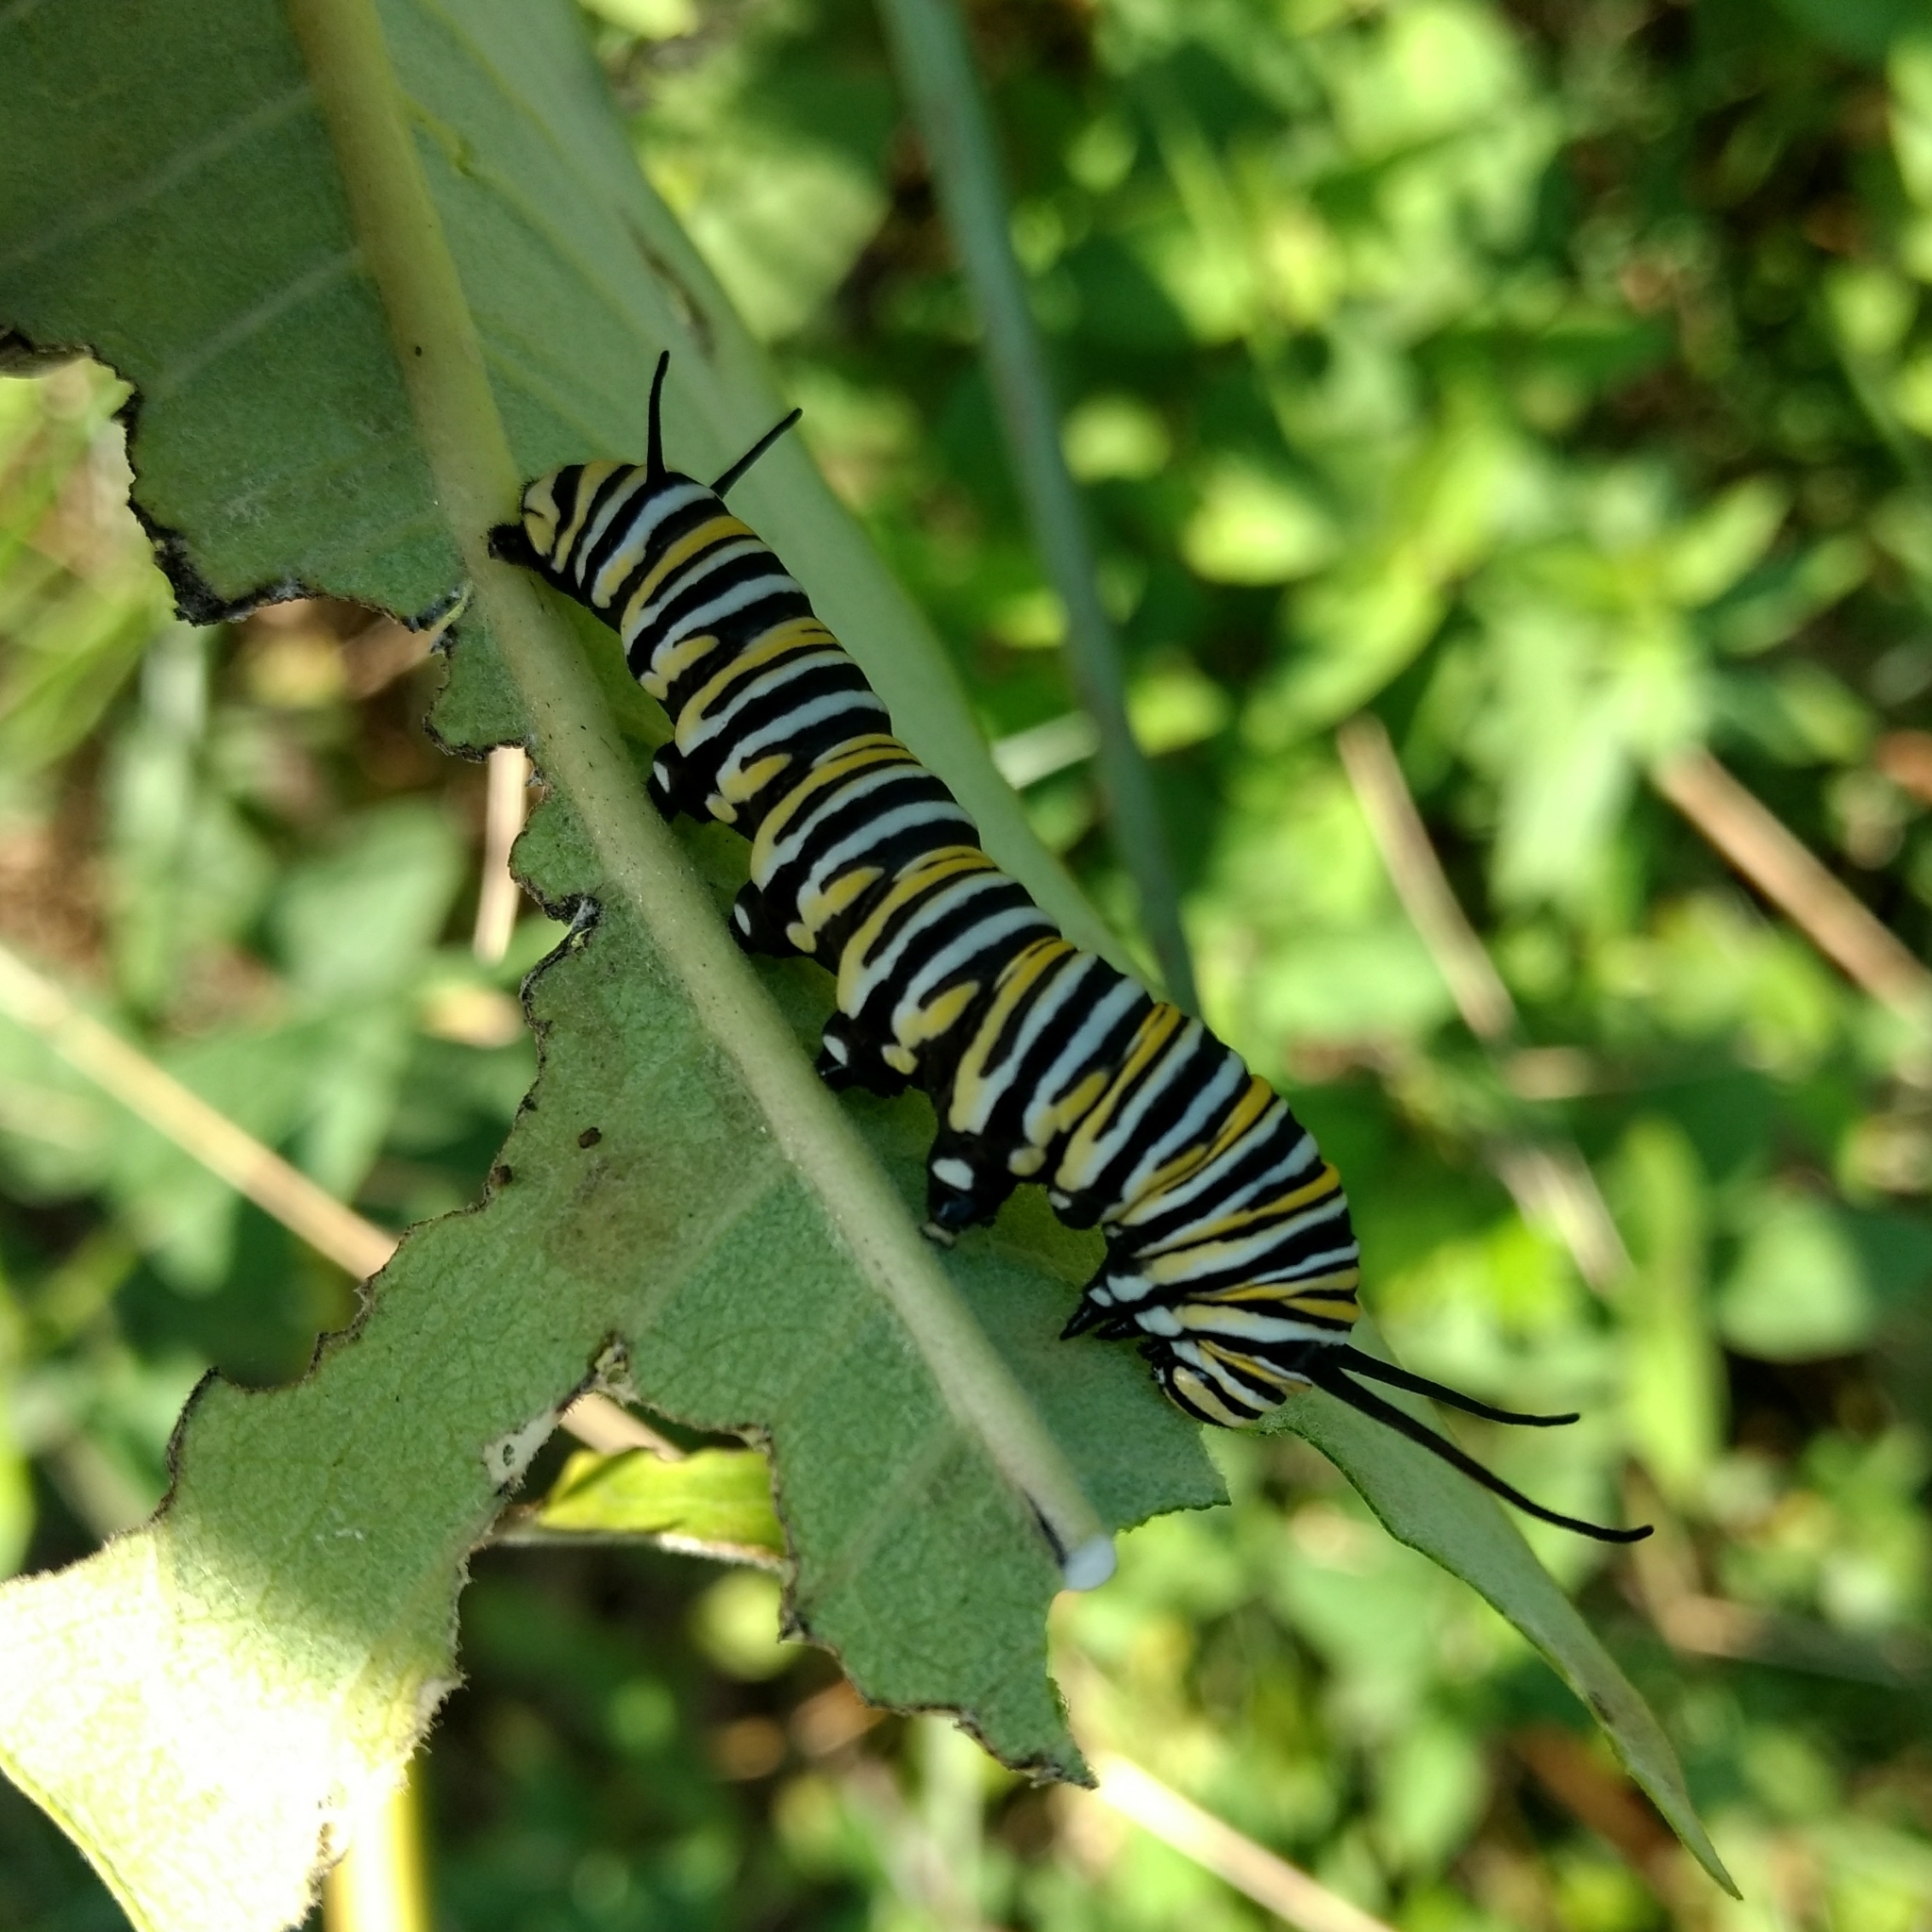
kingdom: Animalia
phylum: Arthropoda
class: Insecta
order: Lepidoptera
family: Nymphalidae
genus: Danaus
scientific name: Danaus plexippus
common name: Monarch
